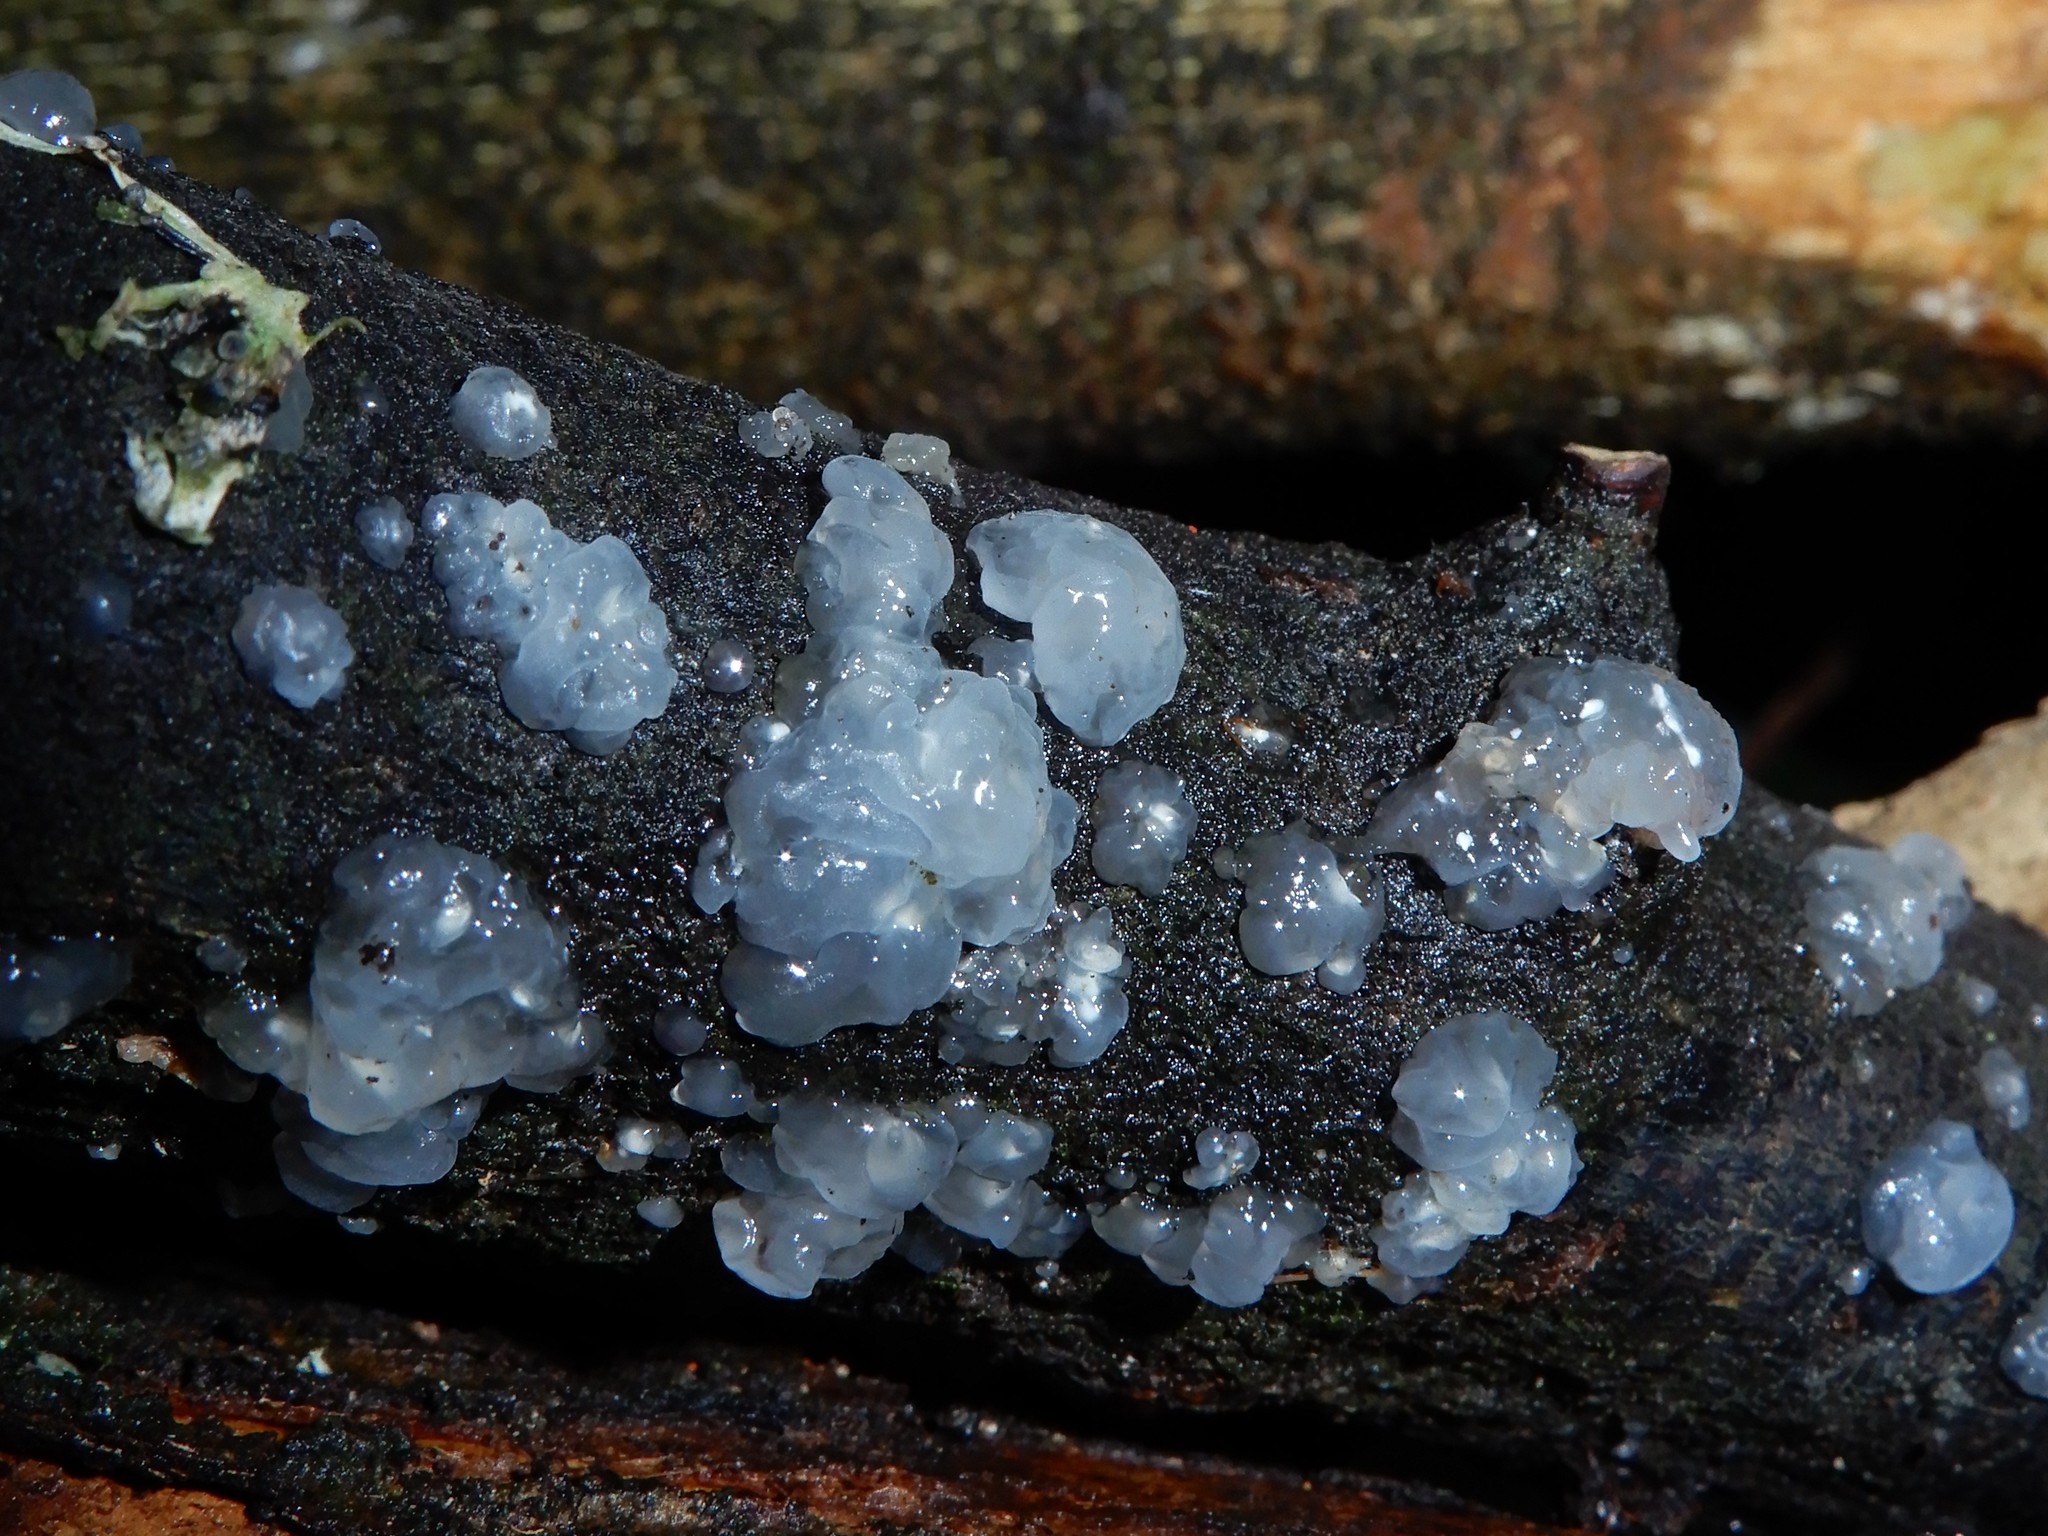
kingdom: Fungi
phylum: Basidiomycota
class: Agaricomycetes
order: Auriculariales
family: Hyaloriaceae
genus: Myxarium
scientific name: Myxarium nucleatum
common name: Crystal brain fungus
